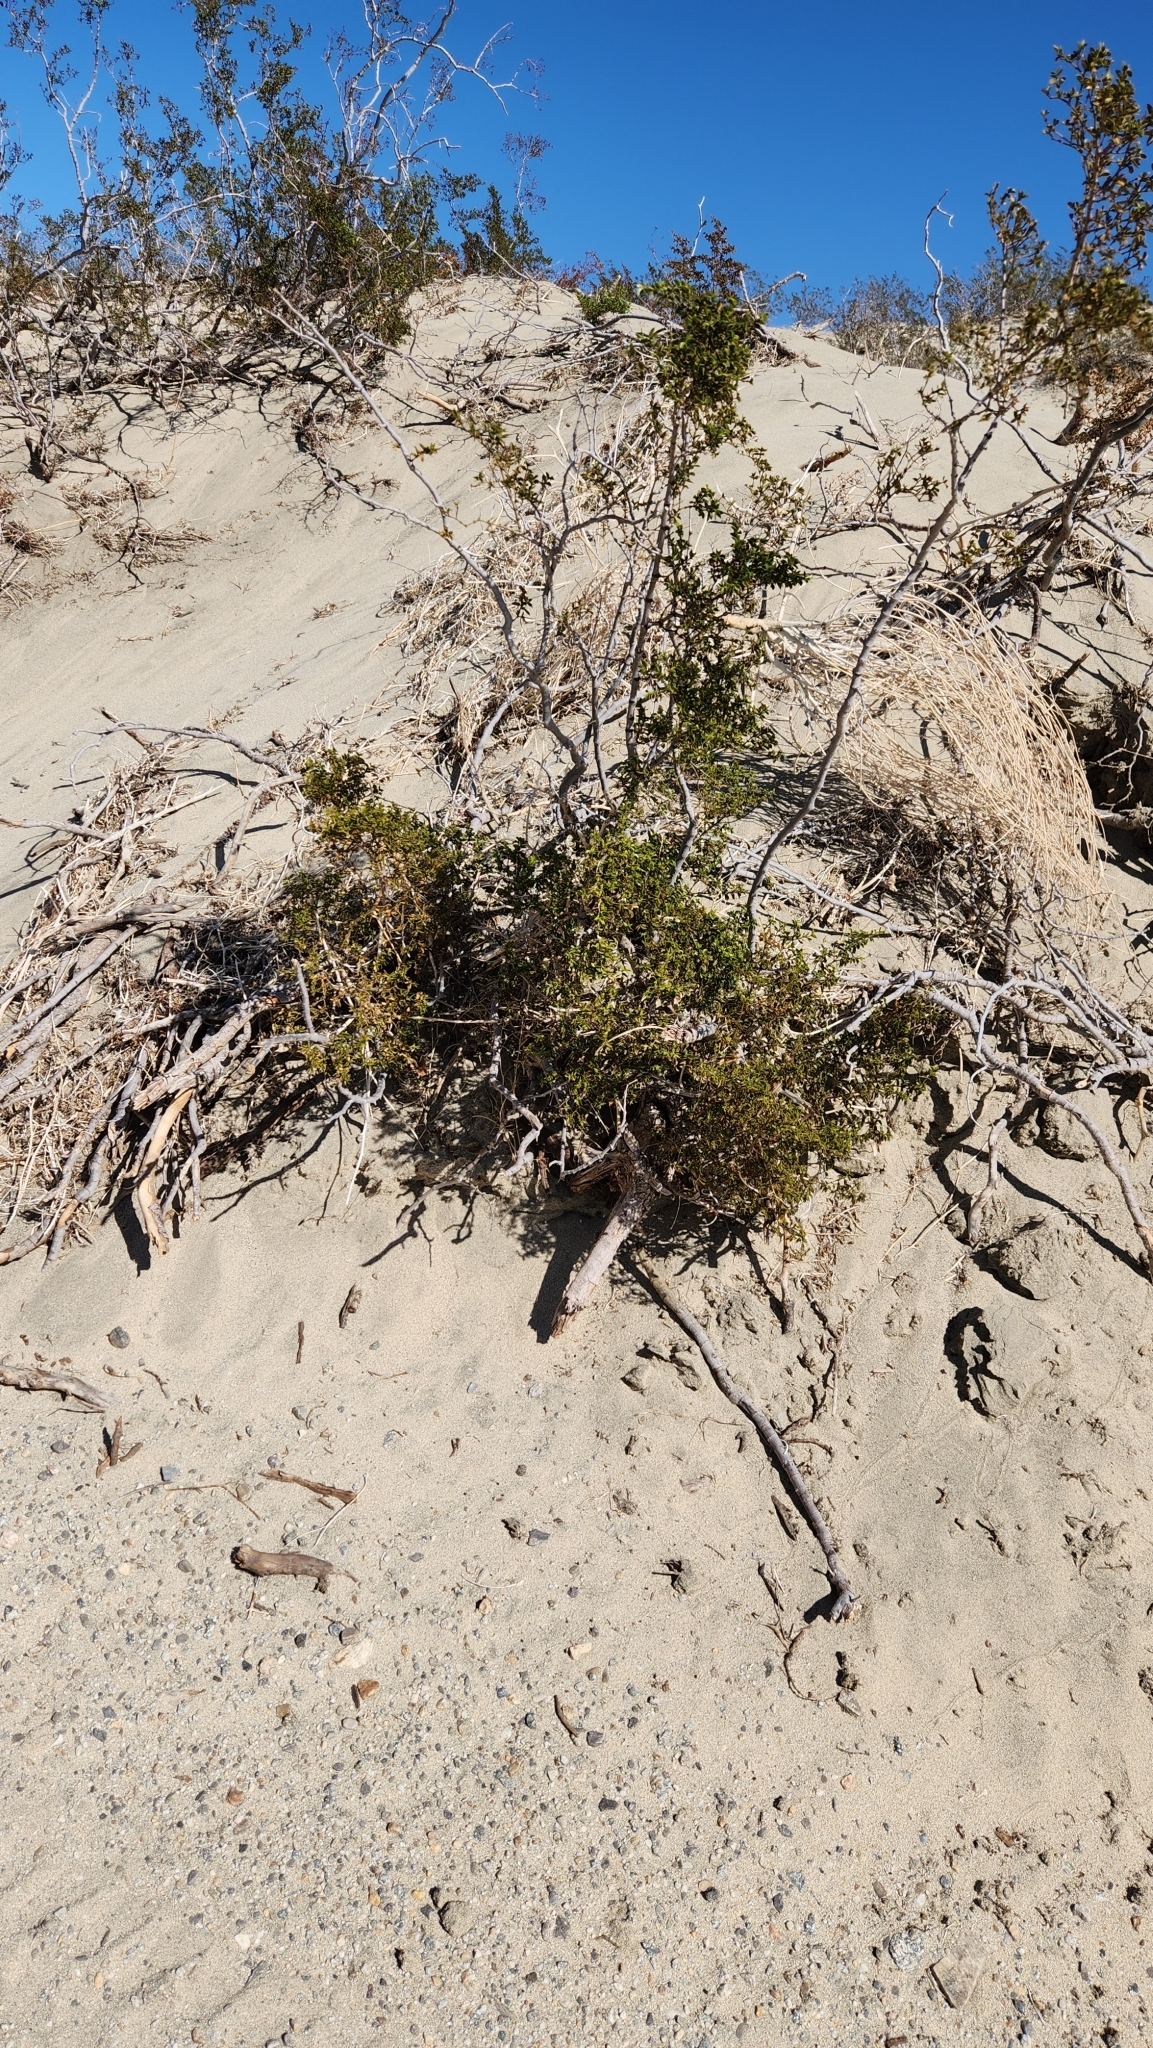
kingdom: Plantae
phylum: Tracheophyta
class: Magnoliopsida
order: Zygophyllales
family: Zygophyllaceae
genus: Larrea
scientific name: Larrea tridentata
